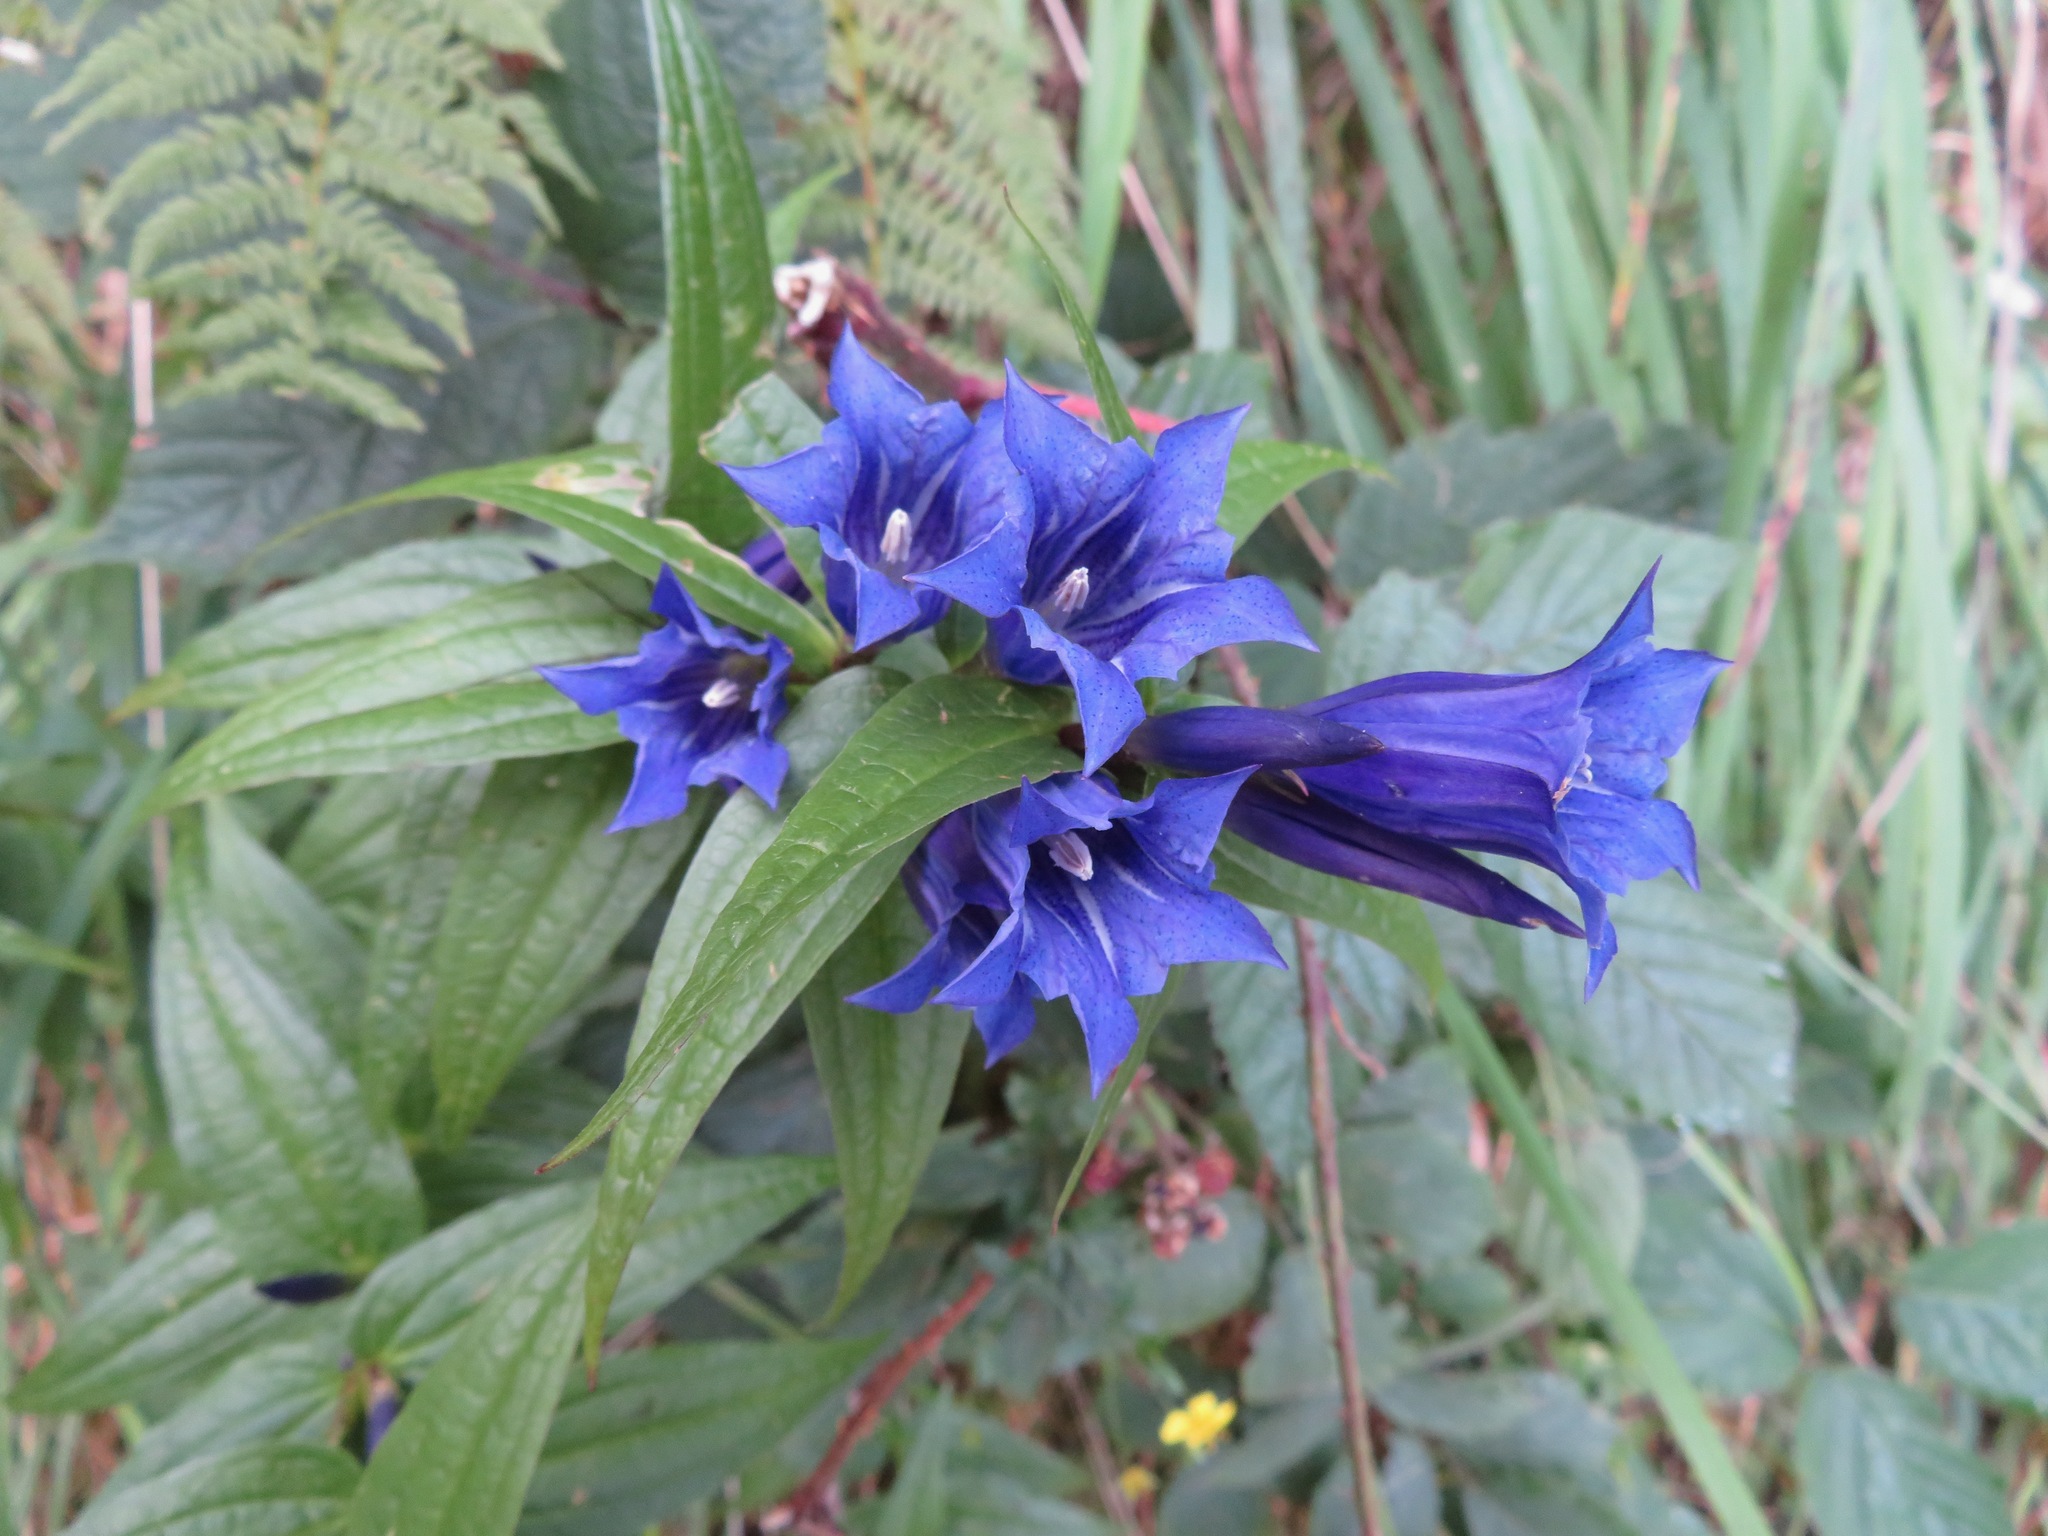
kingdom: Plantae
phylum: Tracheophyta
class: Magnoliopsida
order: Gentianales
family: Gentianaceae
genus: Gentiana
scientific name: Gentiana asclepiadea
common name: Willow gentian
